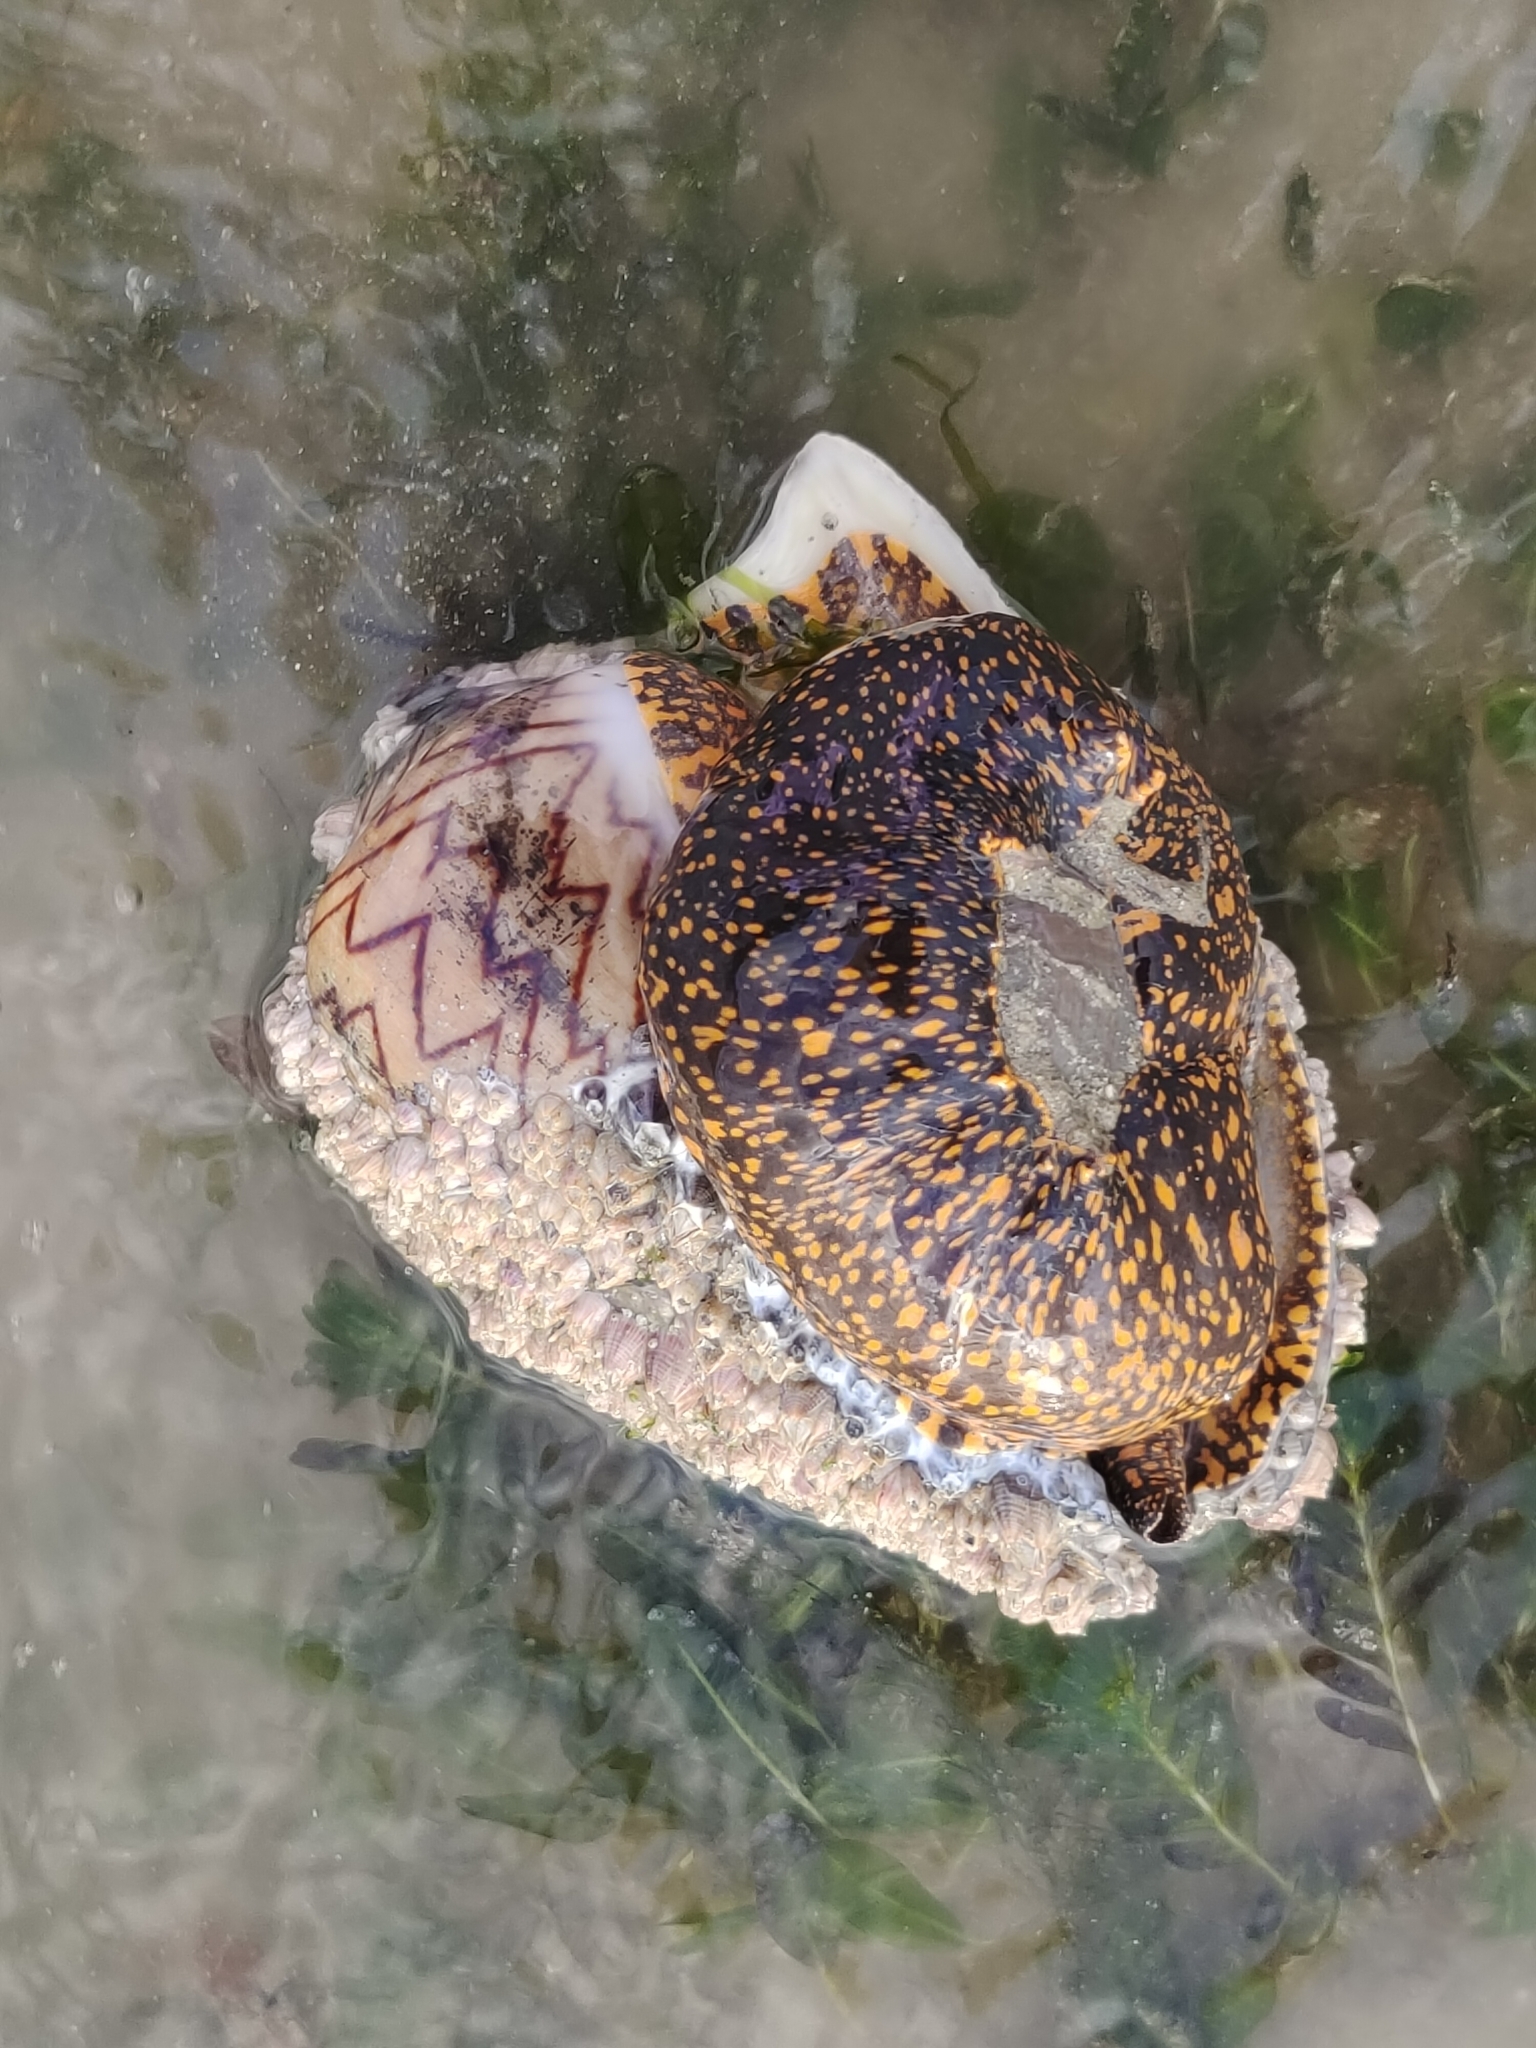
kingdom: Animalia
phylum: Mollusca
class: Gastropoda
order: Neogastropoda
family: Volutidae
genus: Cymbiola
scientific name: Cymbiola nobilis
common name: Noble volute
